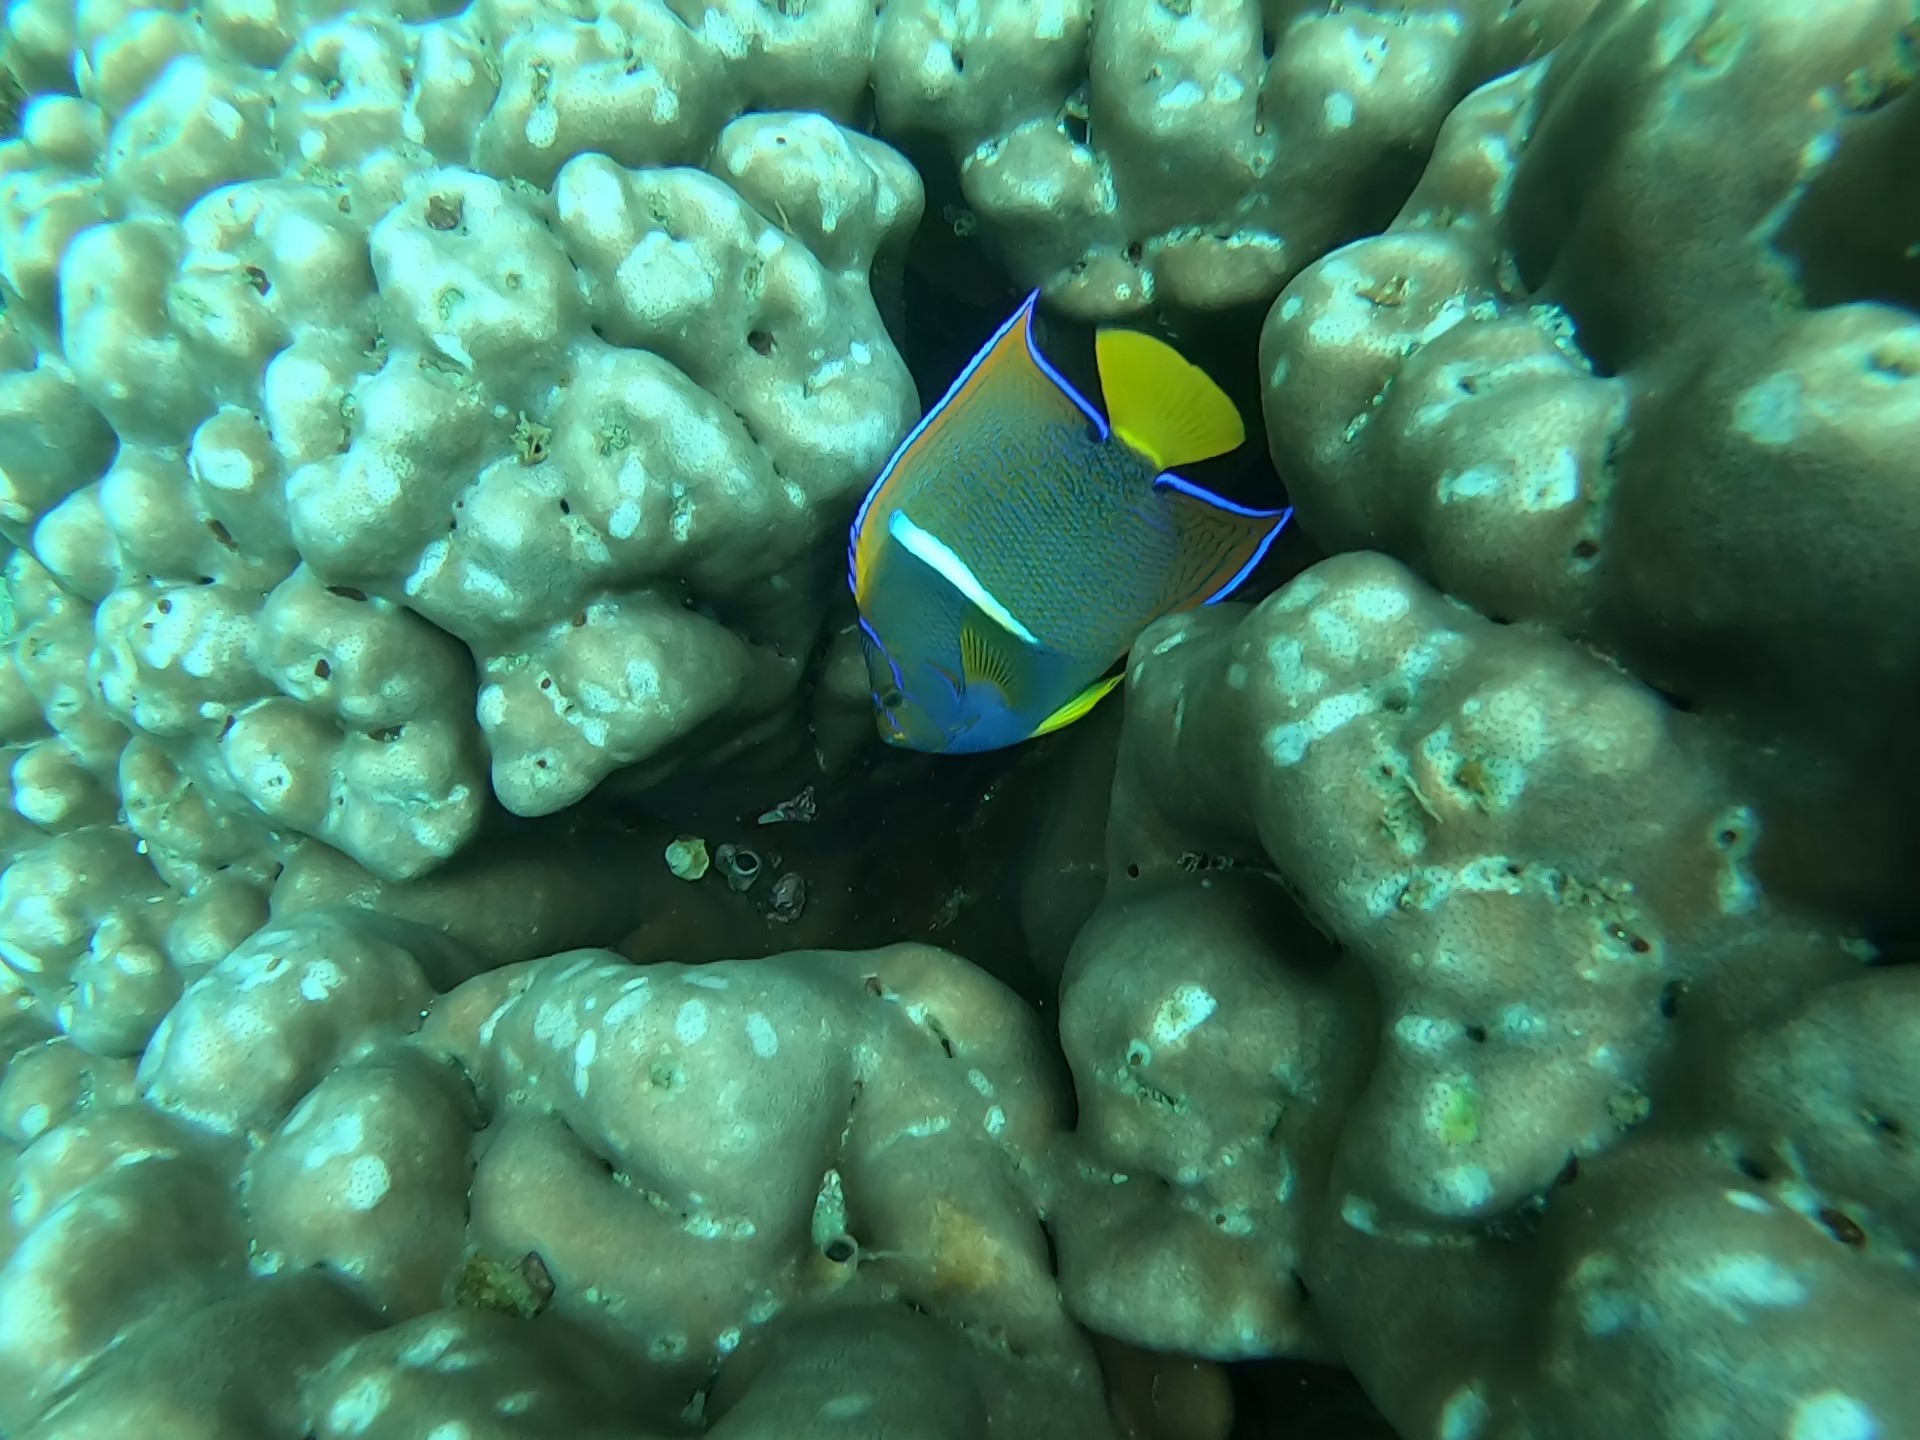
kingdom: Animalia
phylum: Chordata
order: Perciformes
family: Pomacanthidae
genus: Holacanthus
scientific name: Holacanthus passer
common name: King angelfish
